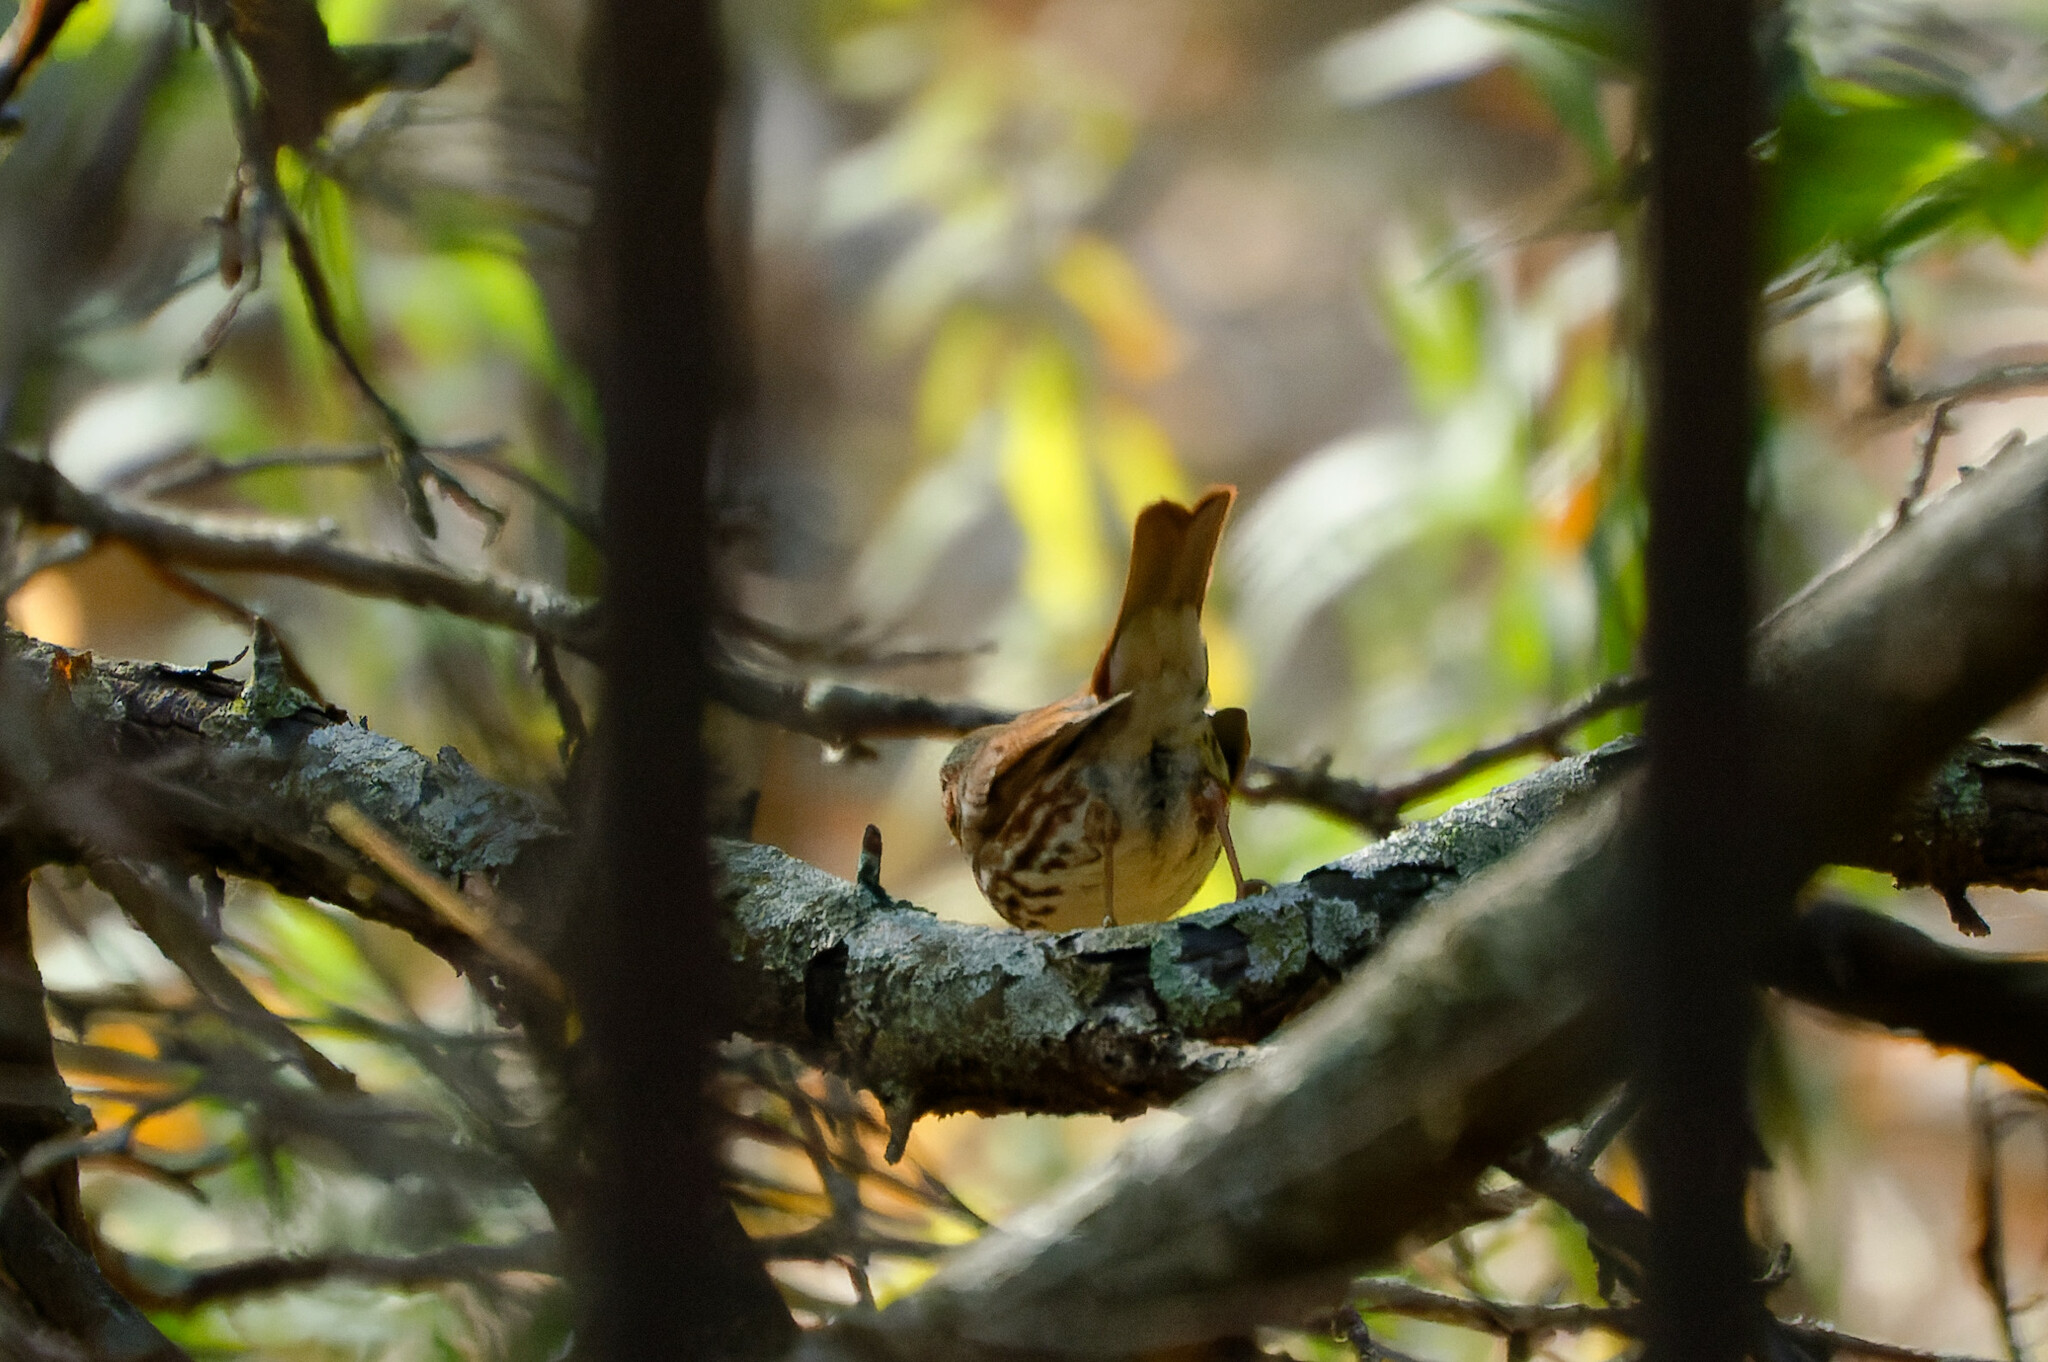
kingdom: Animalia
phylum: Chordata
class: Aves
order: Passeriformes
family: Passerellidae
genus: Passerella
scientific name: Passerella iliaca
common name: Fox sparrow
